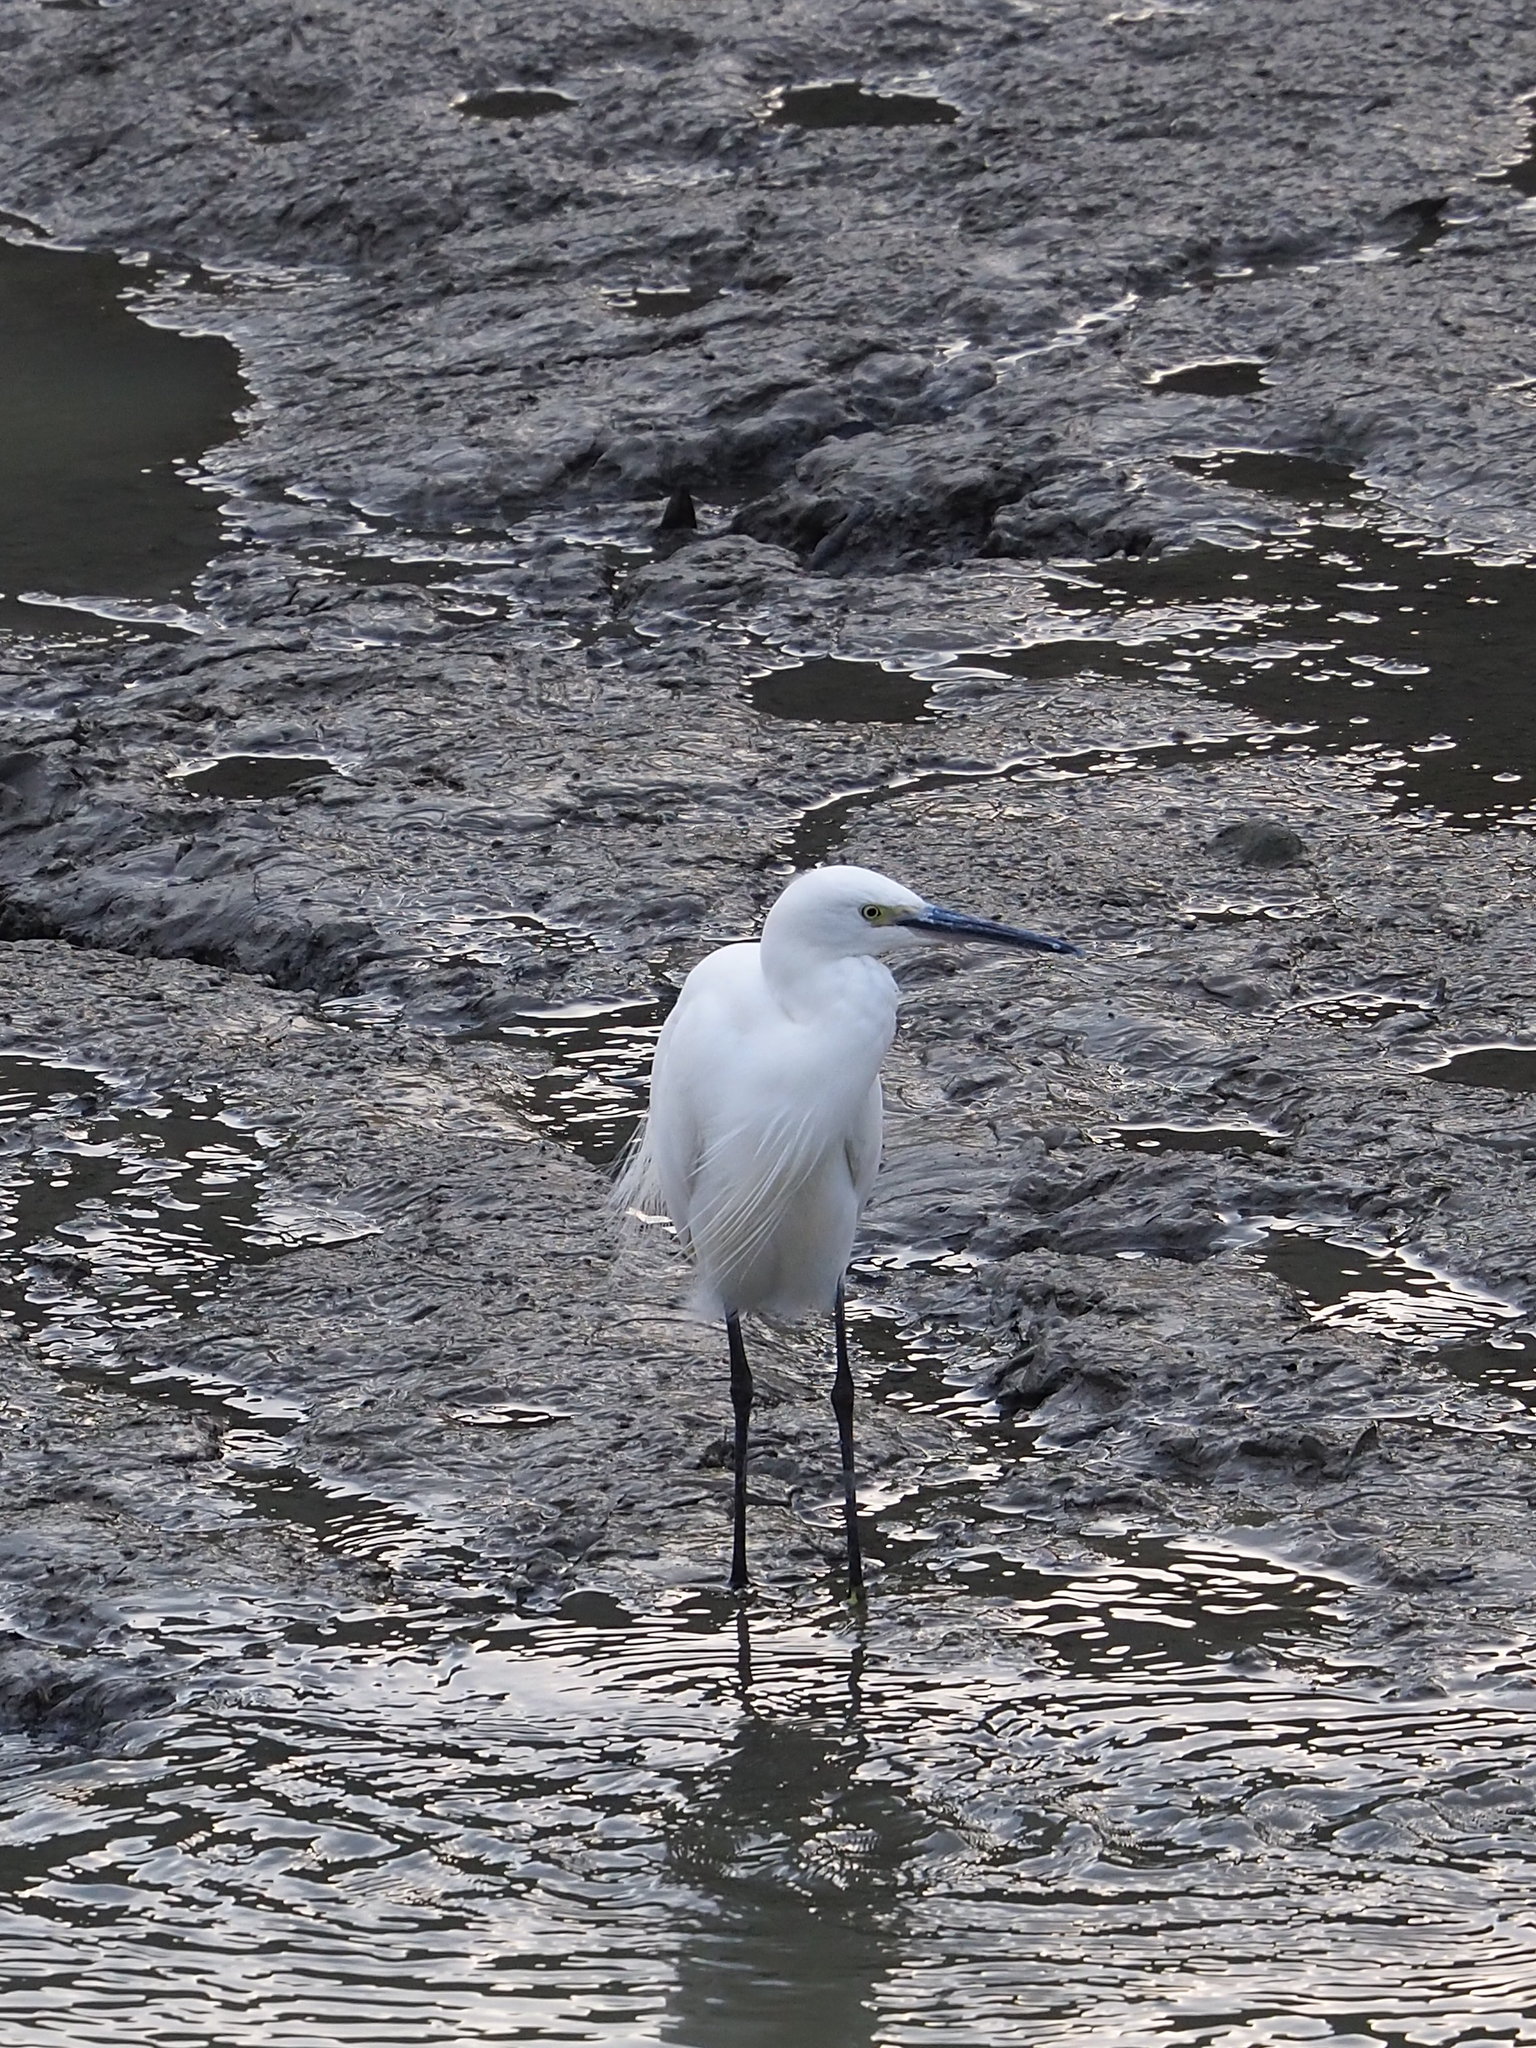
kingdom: Animalia
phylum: Chordata
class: Aves
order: Pelecaniformes
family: Ardeidae
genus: Egretta
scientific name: Egretta garzetta
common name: Little egret
